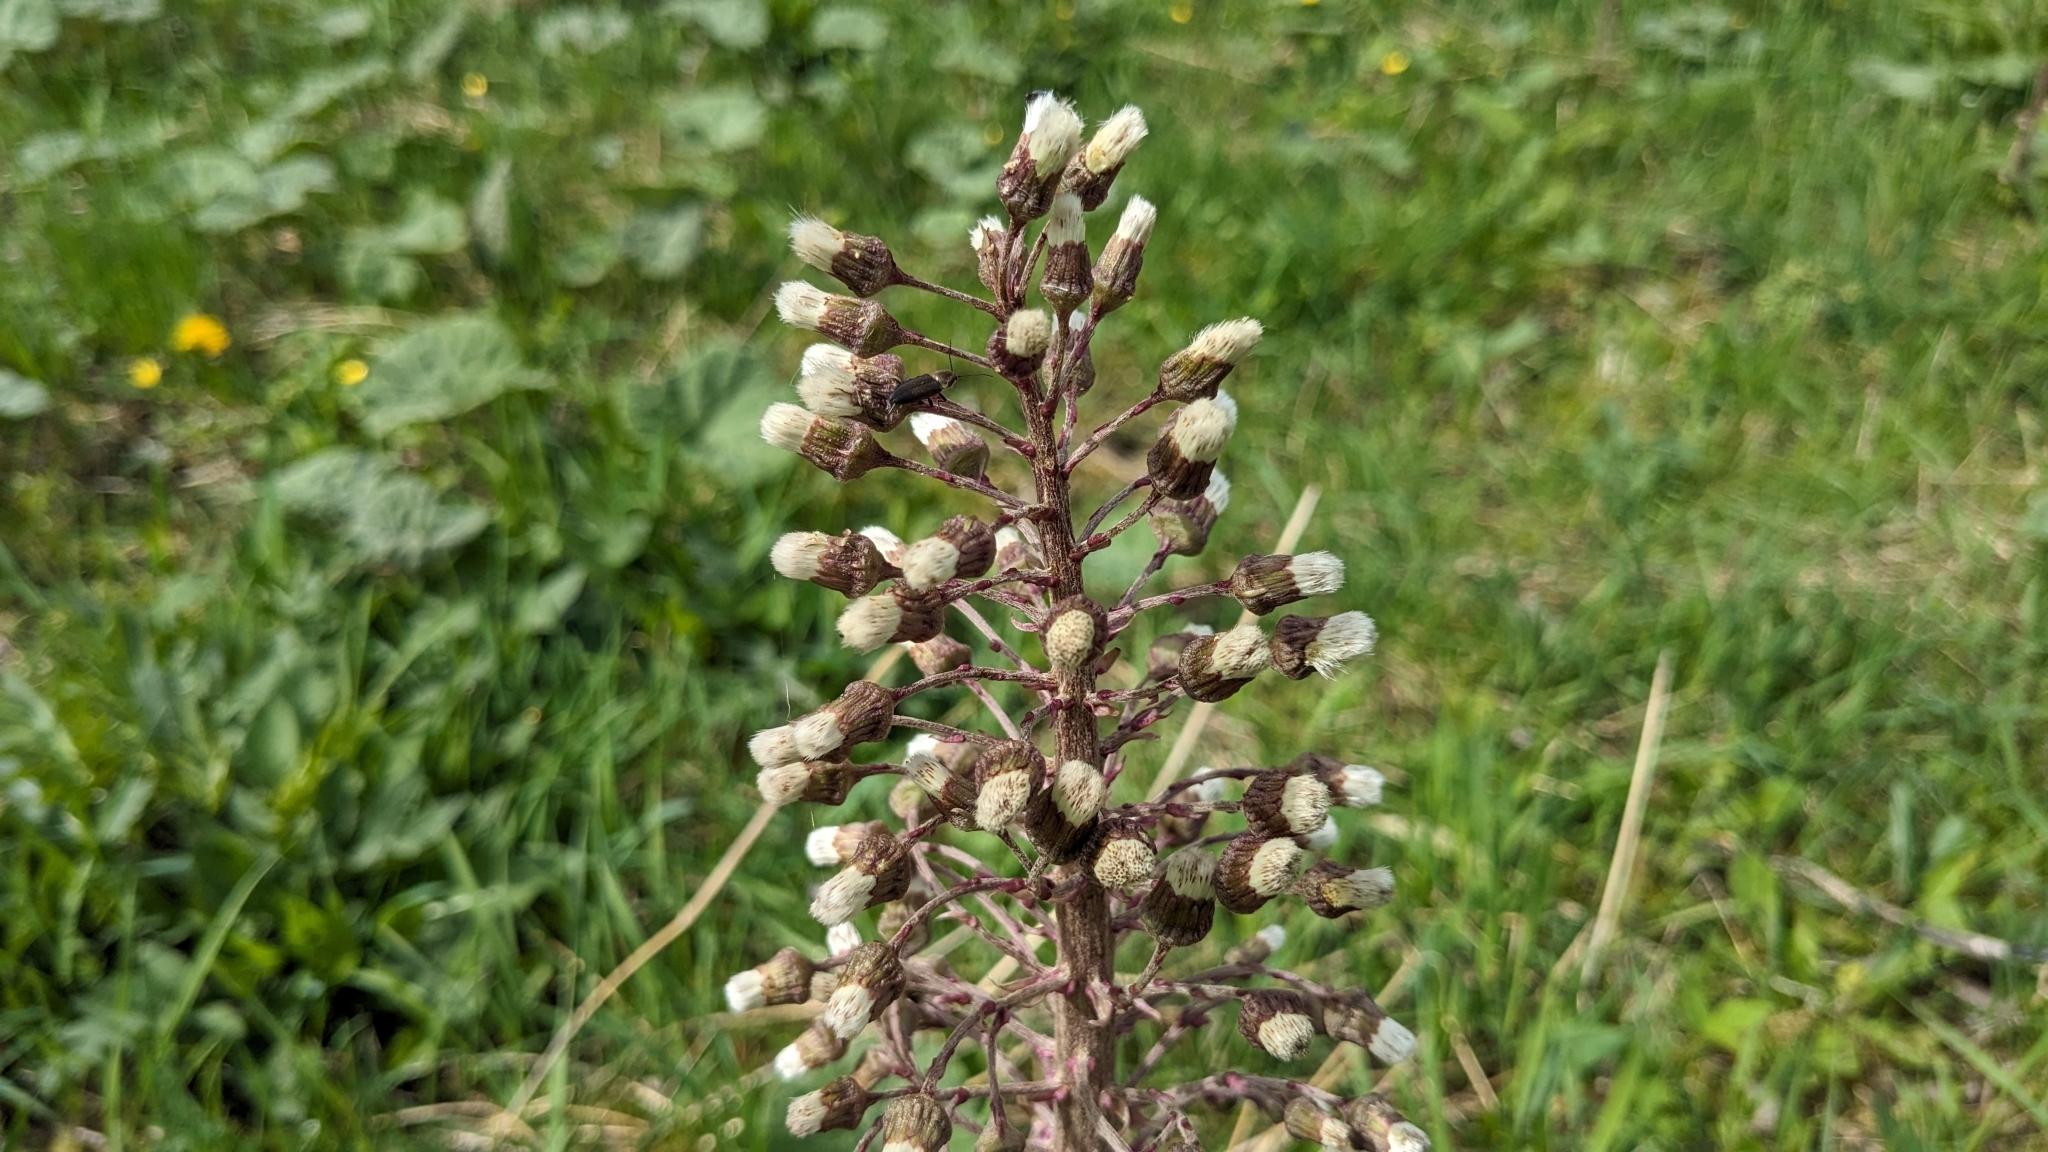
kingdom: Plantae
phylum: Tracheophyta
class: Magnoliopsida
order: Asterales
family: Asteraceae
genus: Petasites
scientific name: Petasites hybridus
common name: Butterbur
